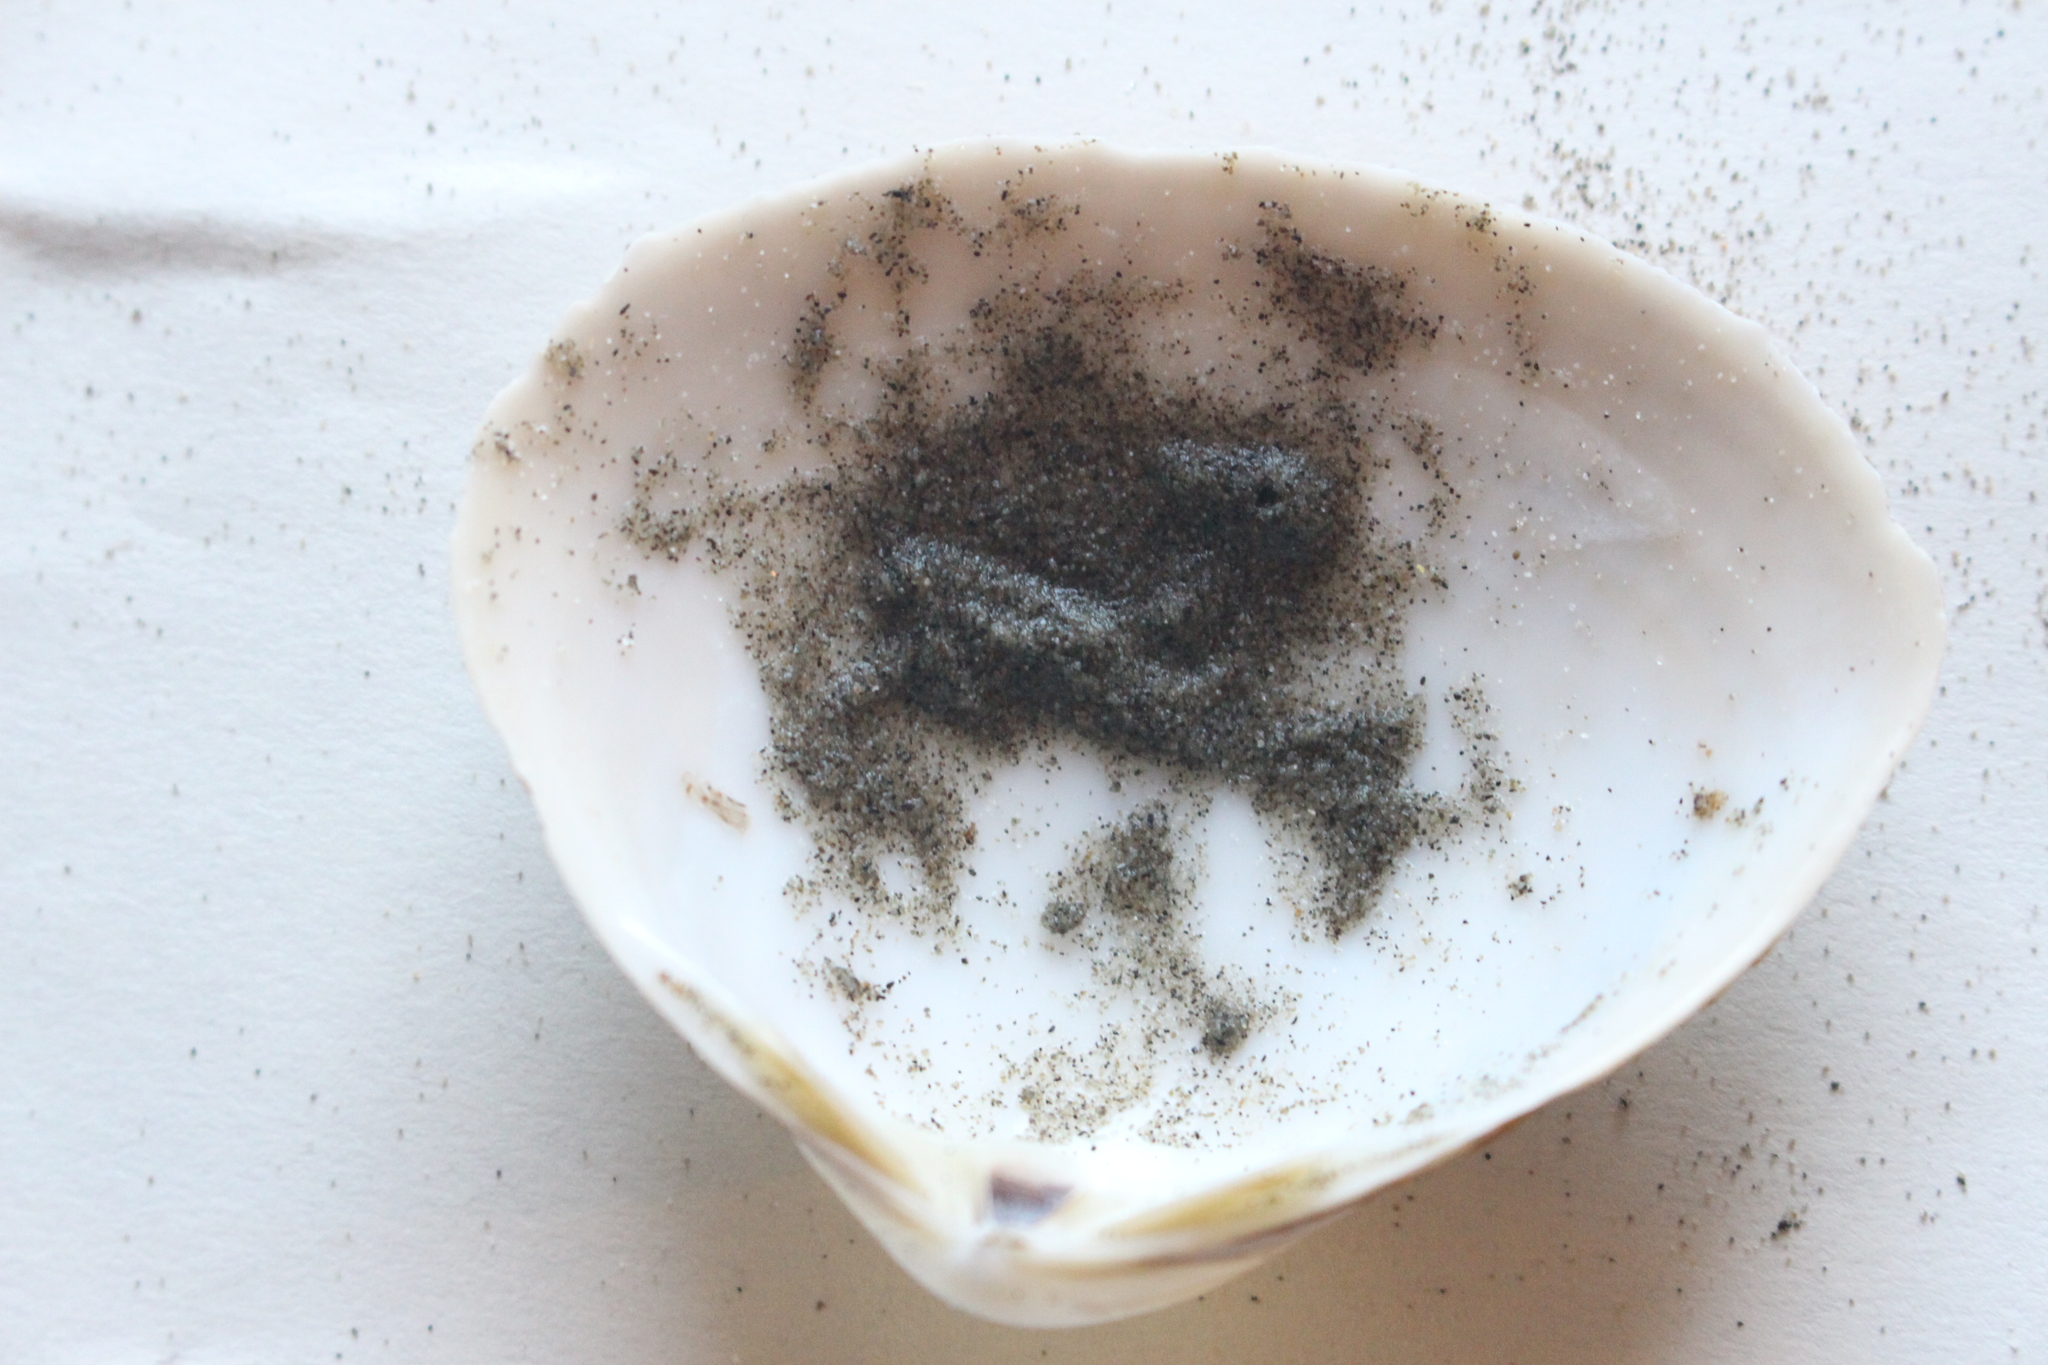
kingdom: Animalia
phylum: Mollusca
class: Bivalvia
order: Venerida
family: Mactridae
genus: Spisula
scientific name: Spisula discors
